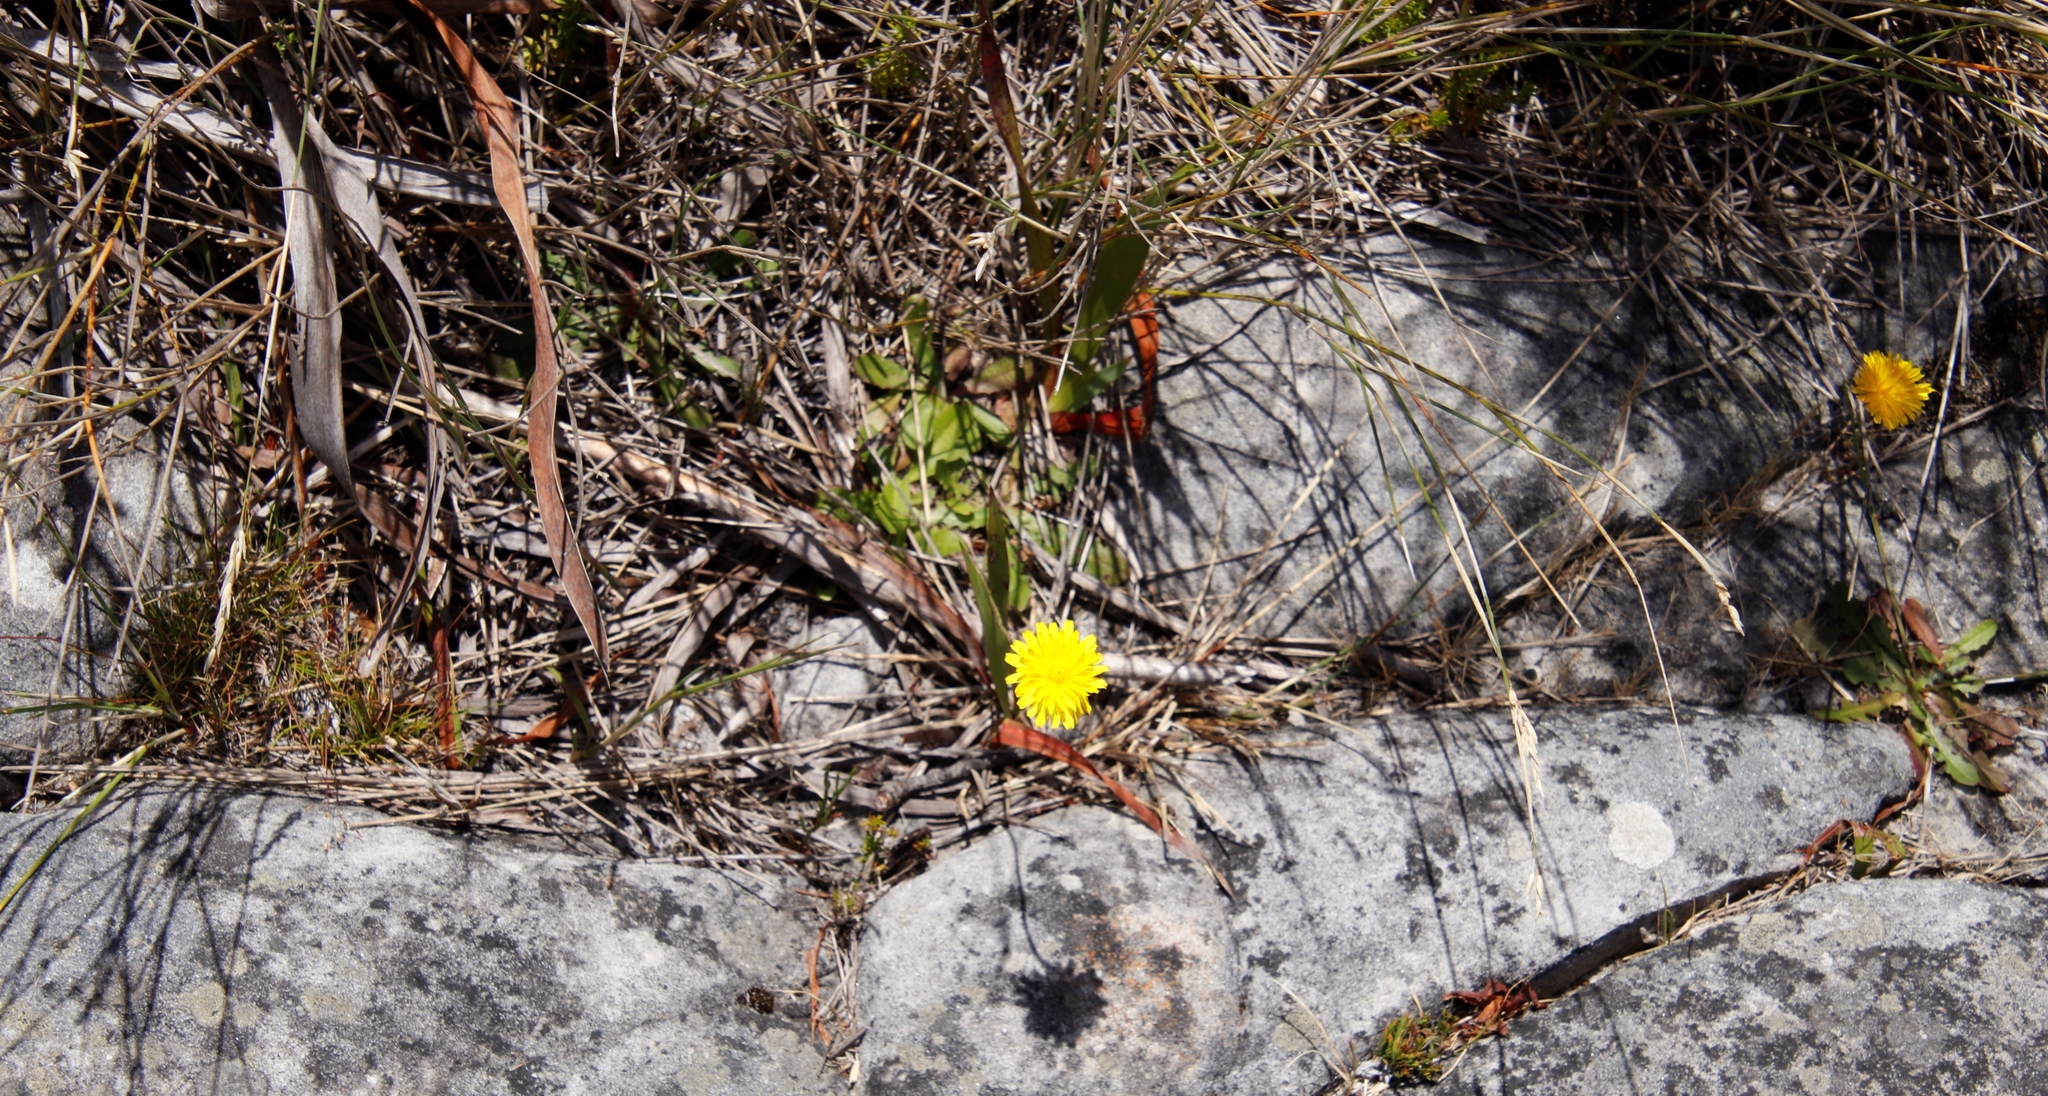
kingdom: Plantae
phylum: Tracheophyta
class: Magnoliopsida
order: Asterales
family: Asteraceae
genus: Hypochaeris
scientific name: Hypochaeris radicata
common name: Flatweed
